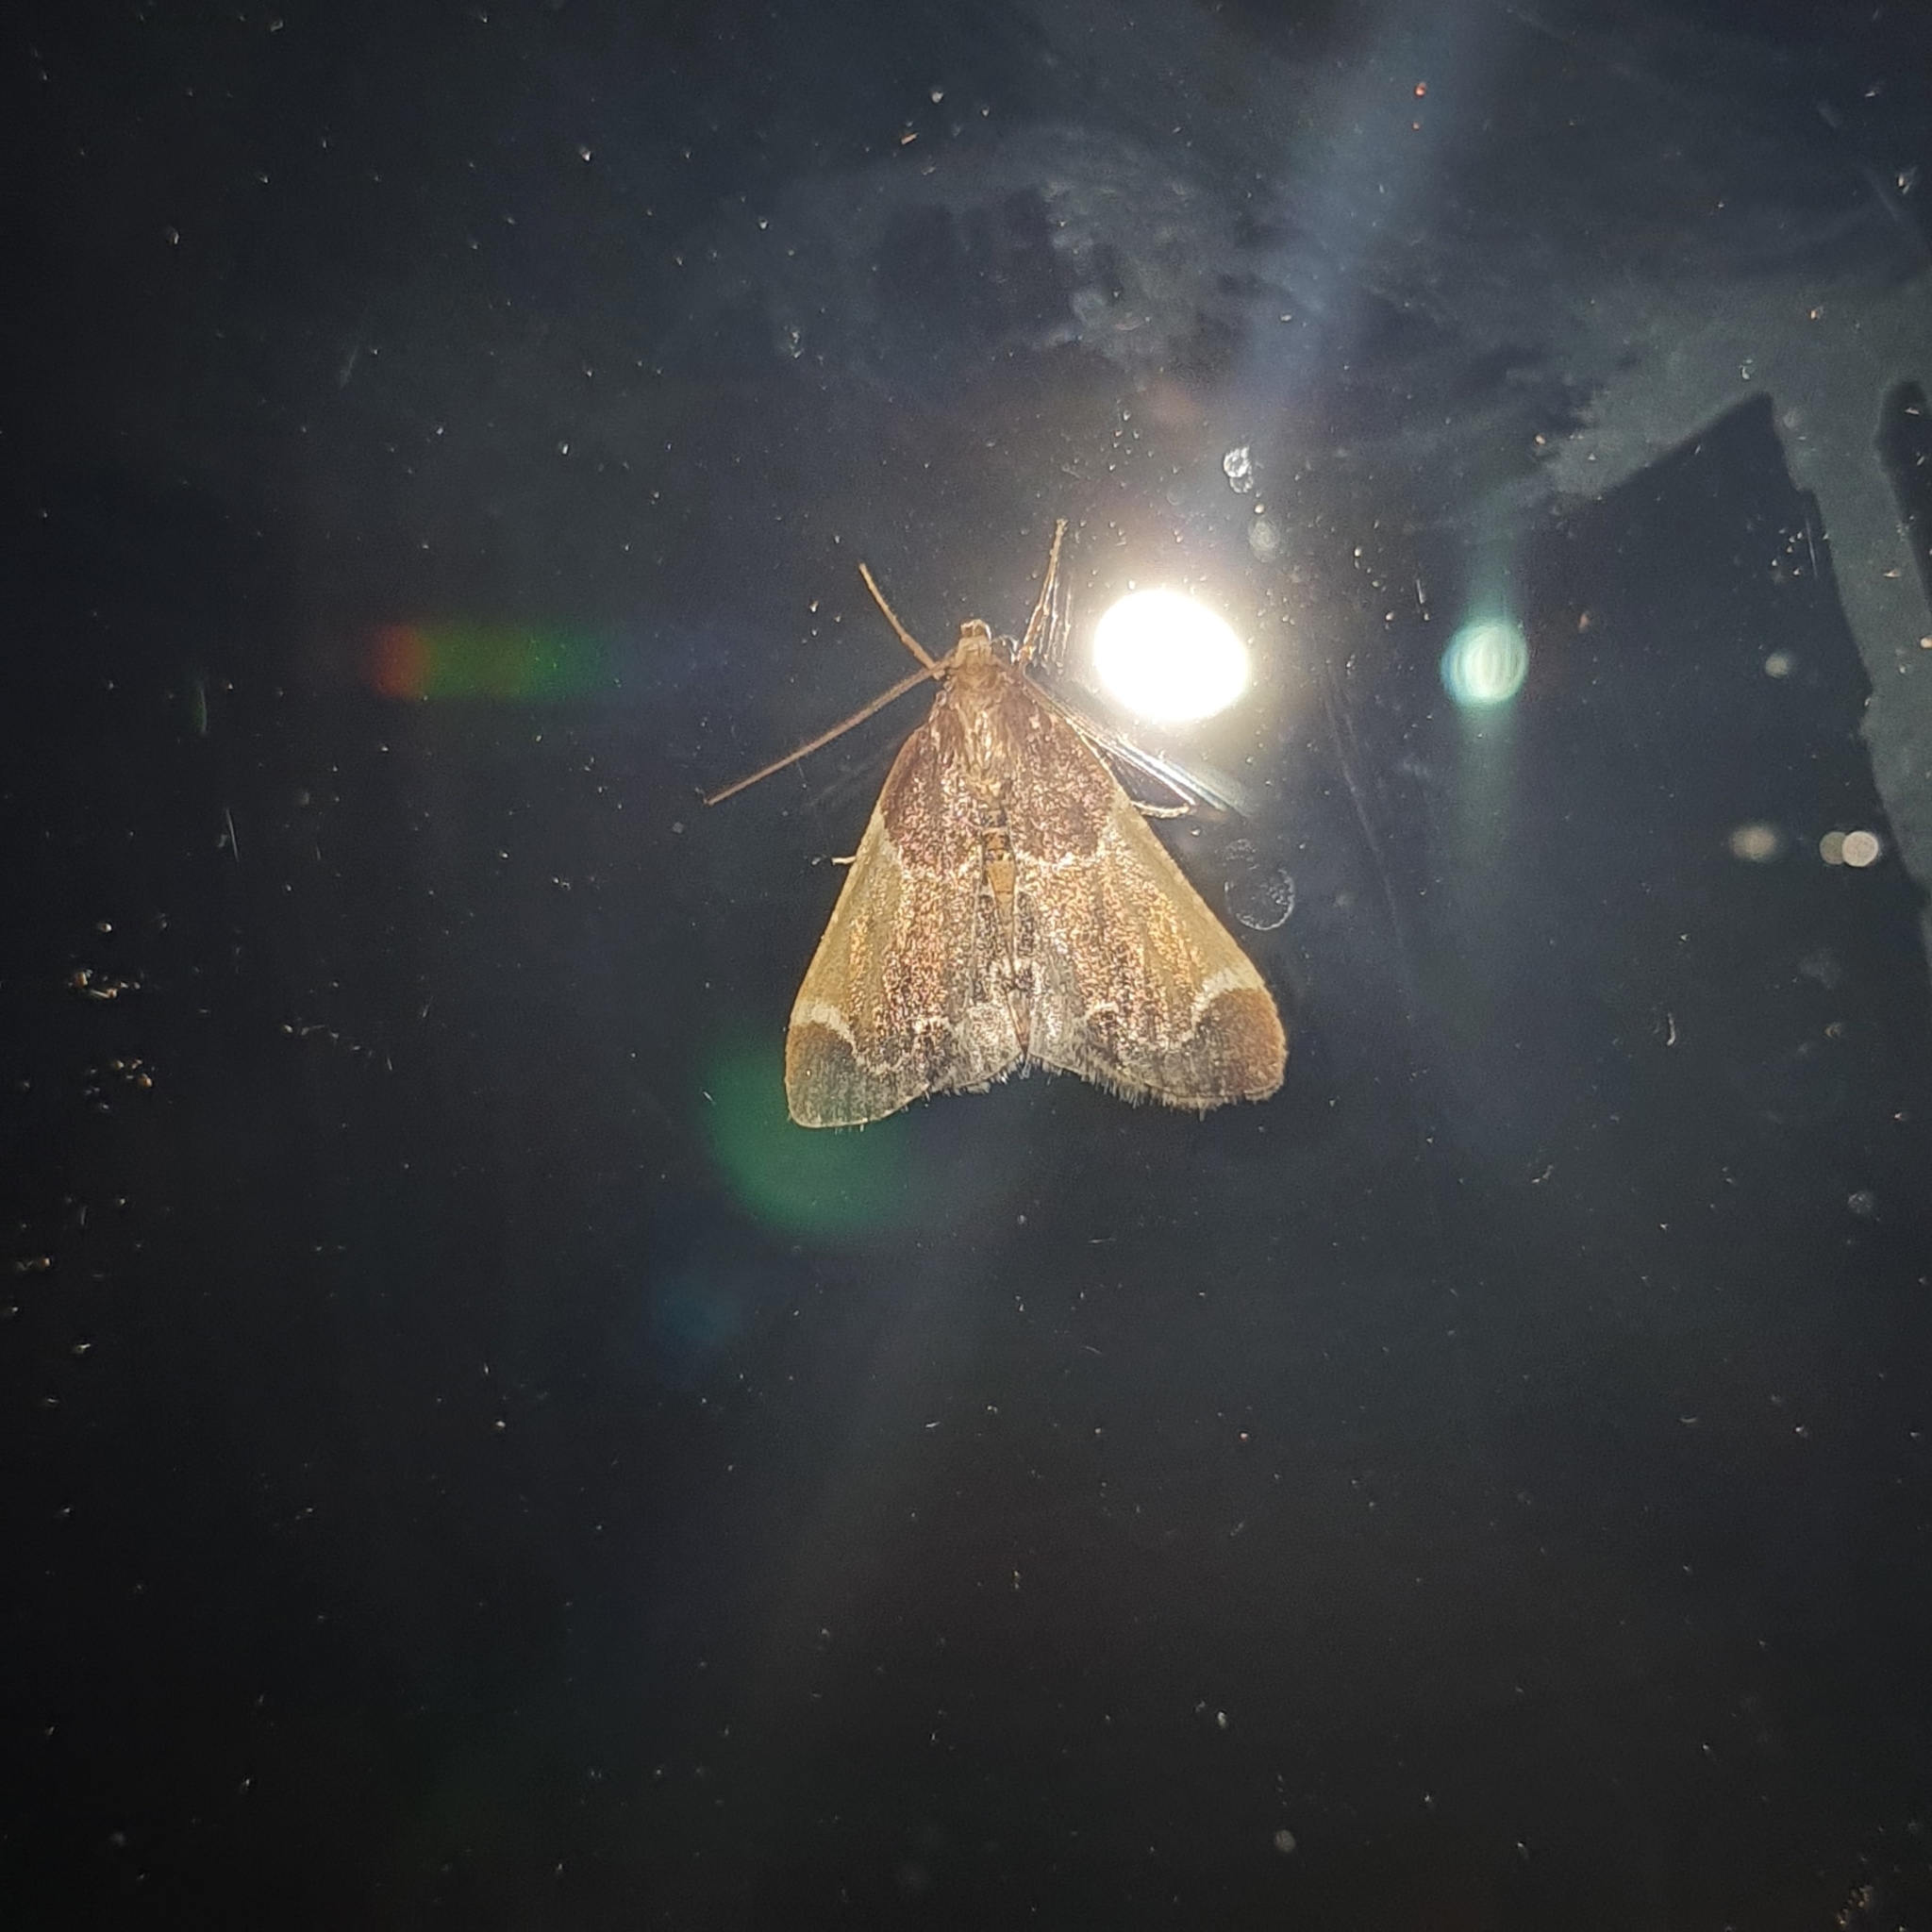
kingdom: Animalia
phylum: Arthropoda
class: Insecta
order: Lepidoptera
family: Pyralidae
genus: Pyralis
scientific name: Pyralis farinalis
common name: Meal moth
